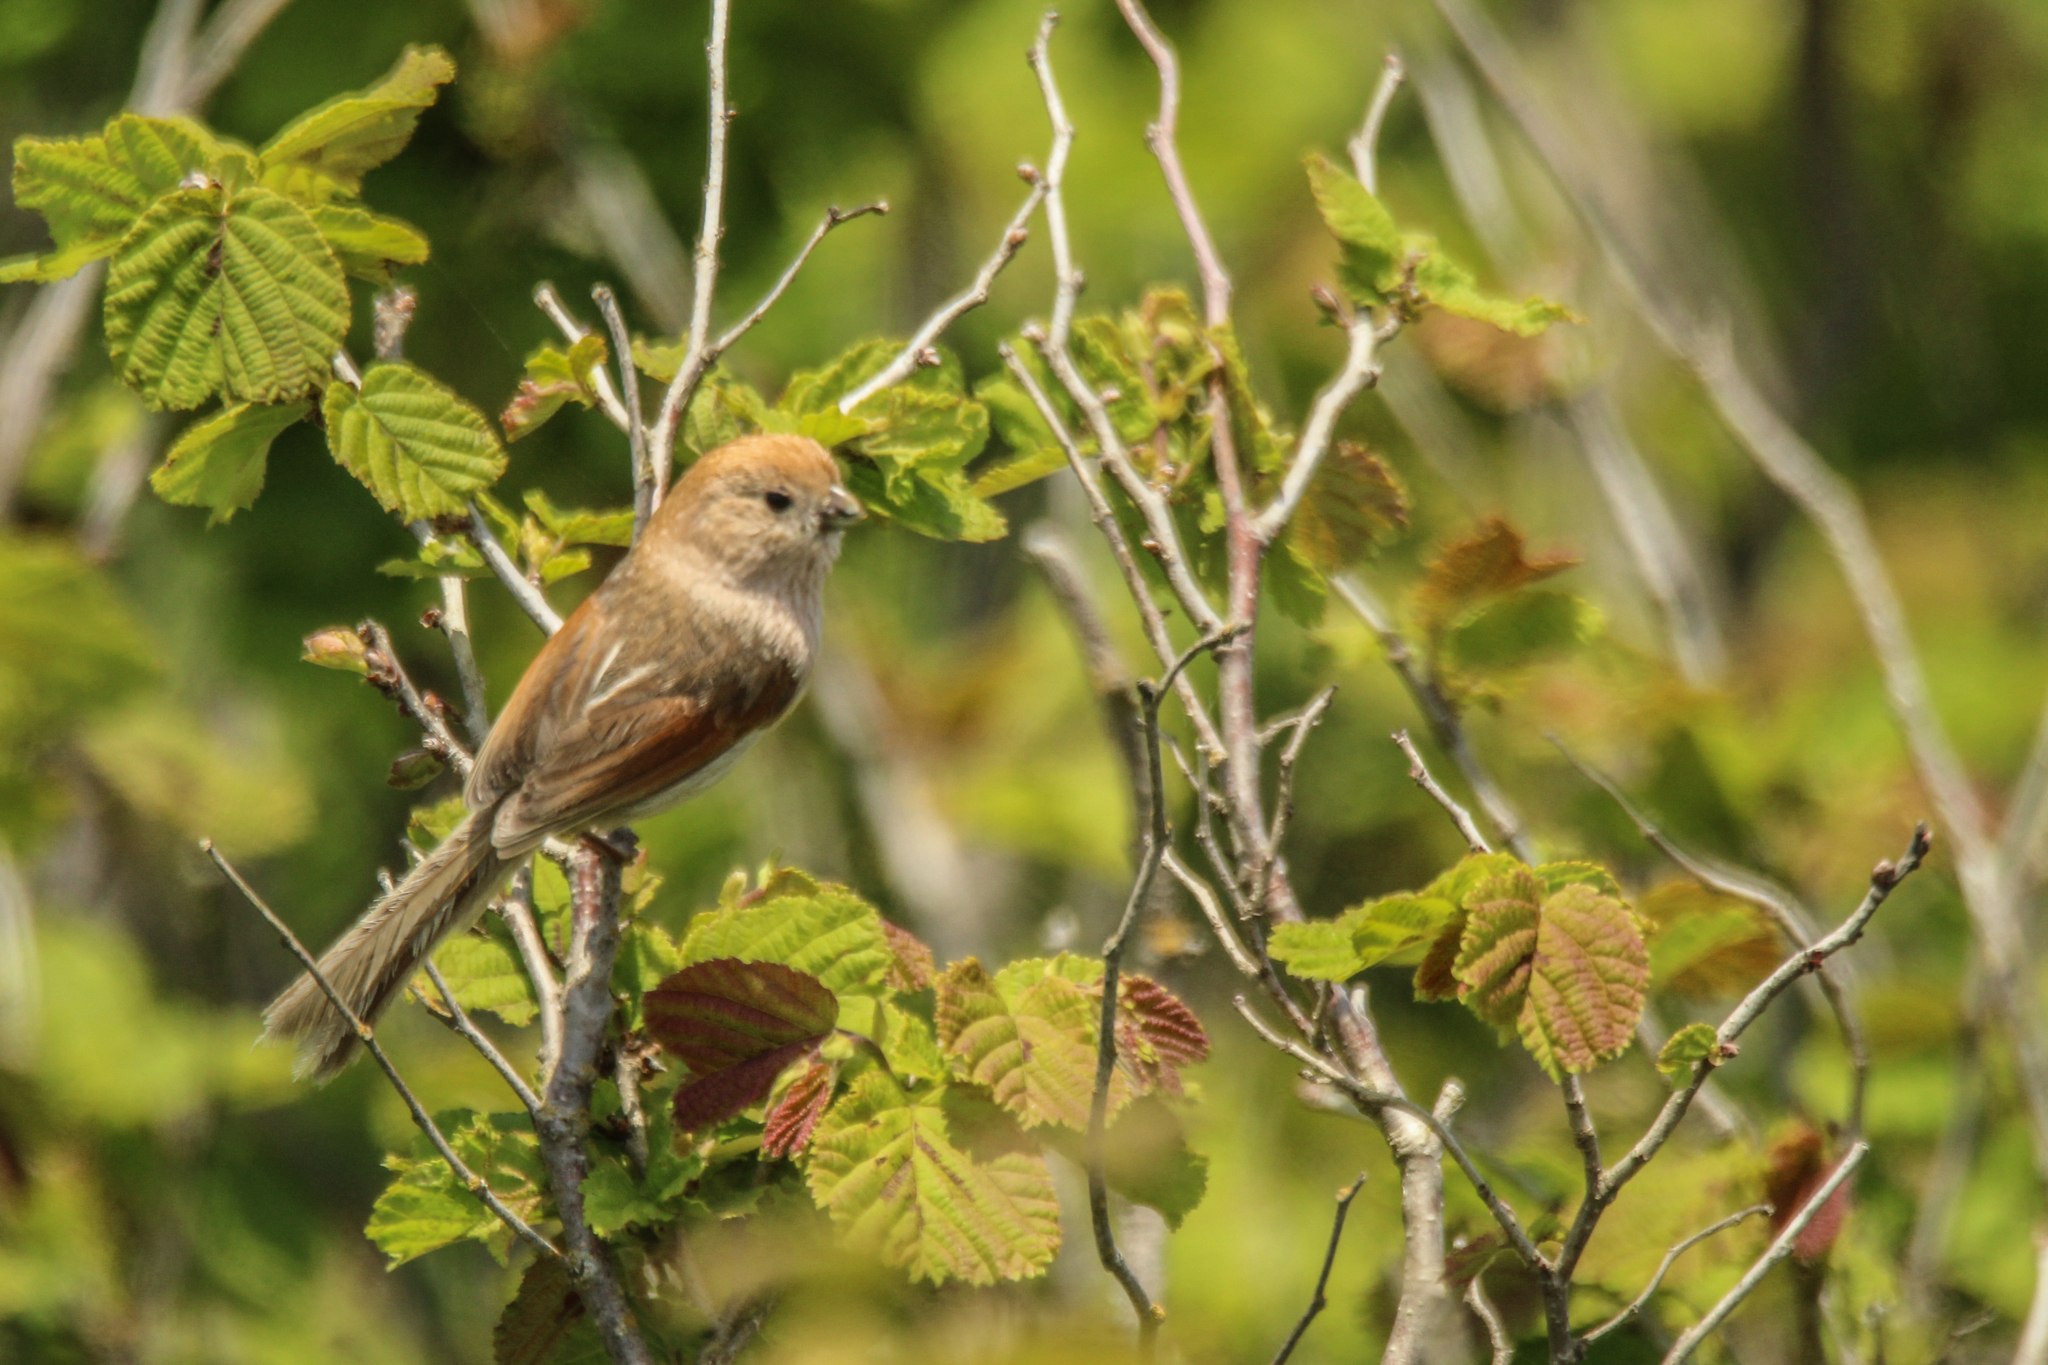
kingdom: Animalia
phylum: Chordata
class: Aves
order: Passeriformes
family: Sylviidae
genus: Sinosuthora
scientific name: Sinosuthora webbiana
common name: Vinous-throated parrotbill
